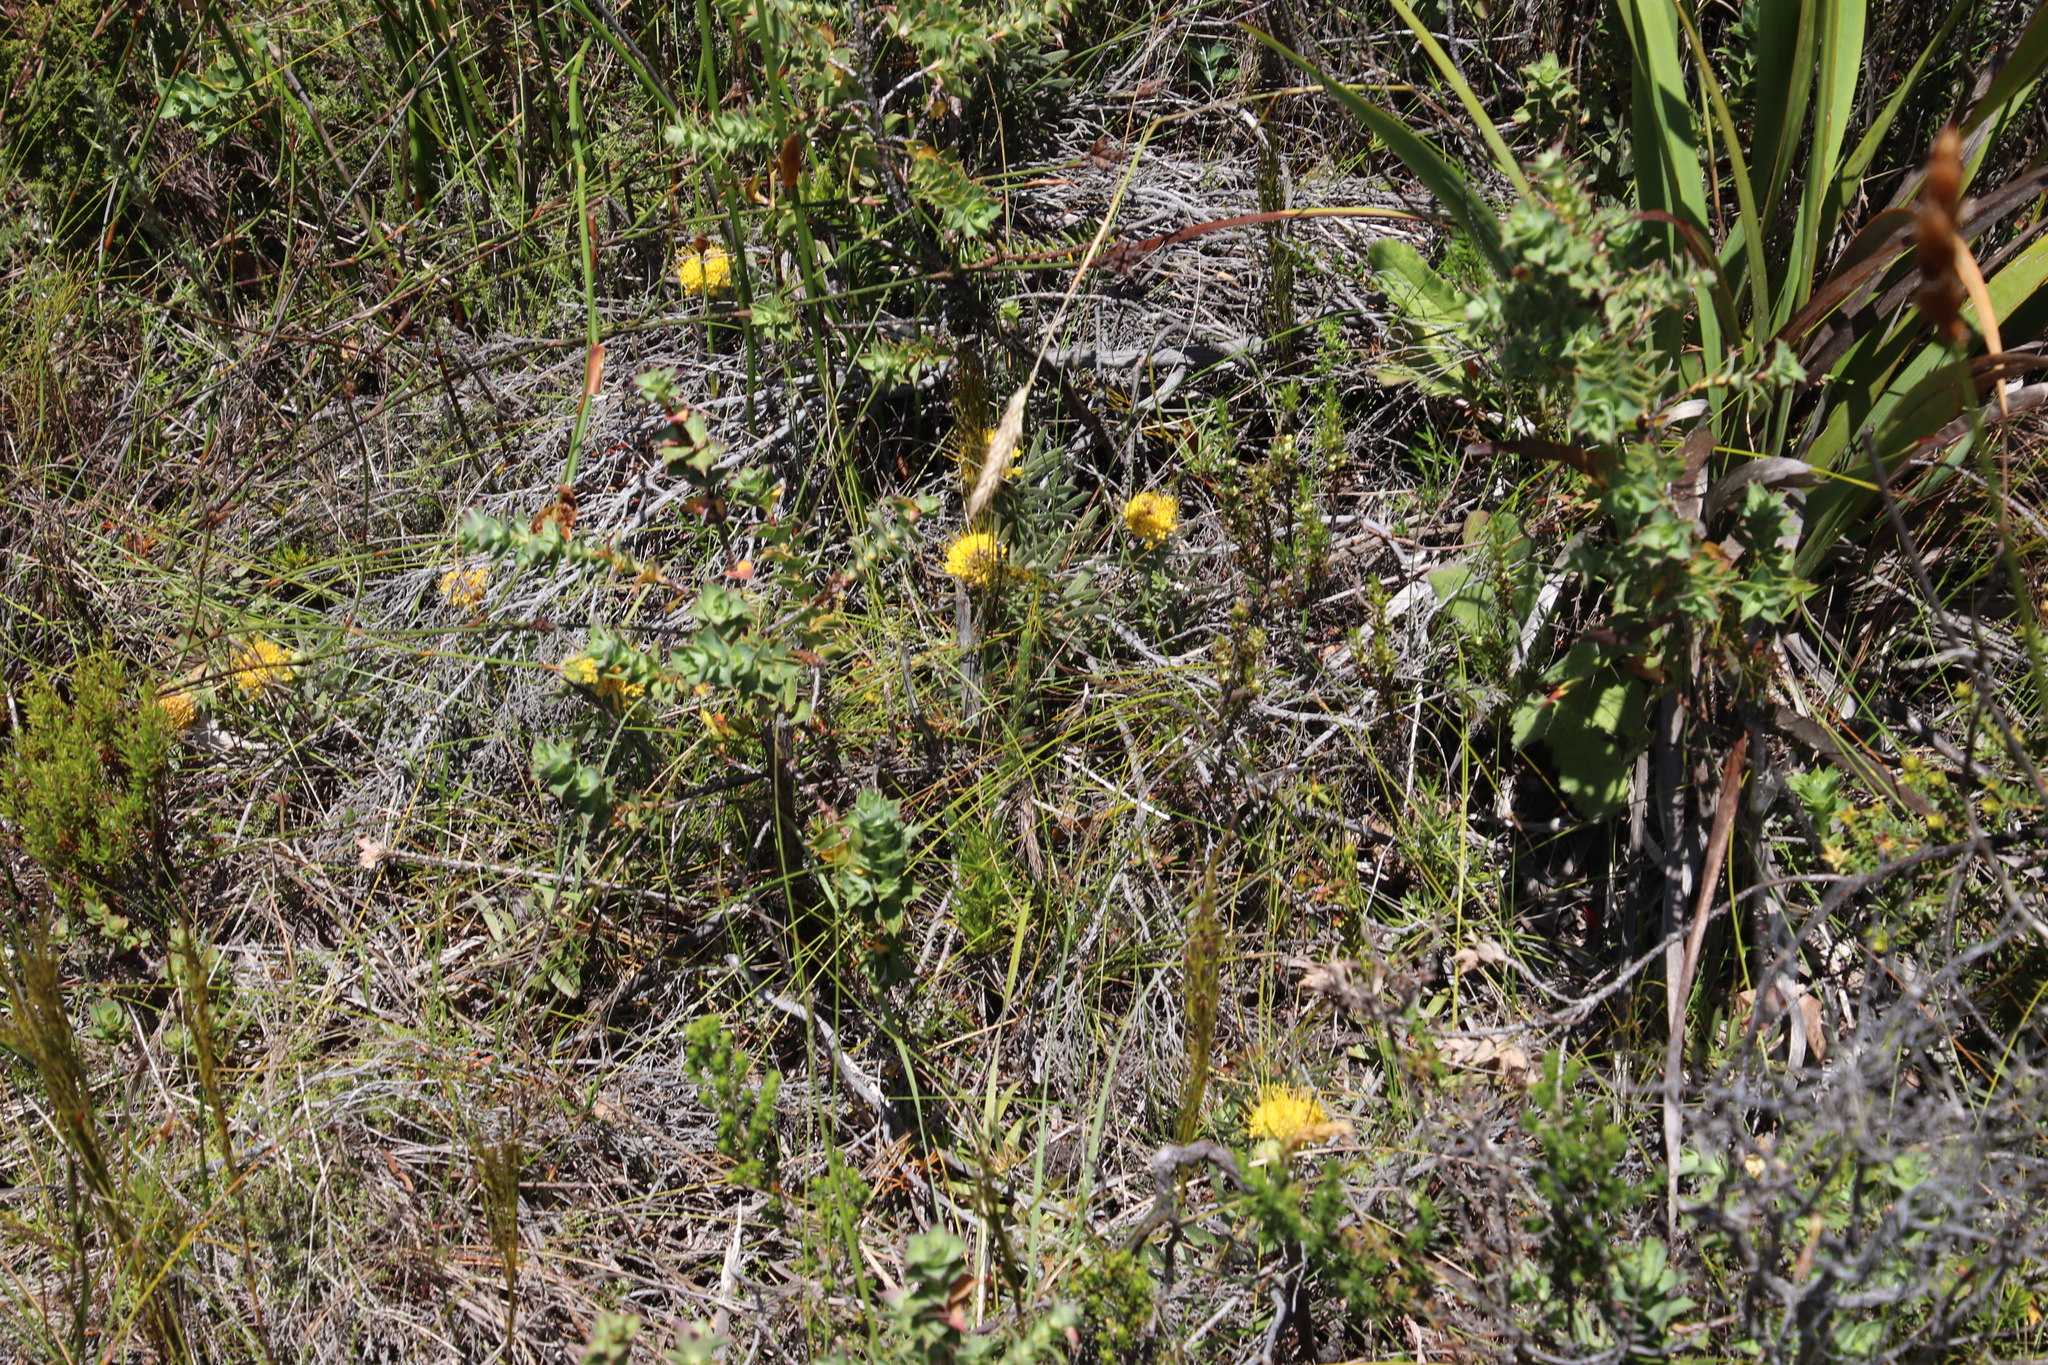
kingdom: Plantae
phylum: Tracheophyta
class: Magnoliopsida
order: Proteales
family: Proteaceae
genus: Leucospermum
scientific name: Leucospermum prostratum
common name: Yellow-trailing pincushion
